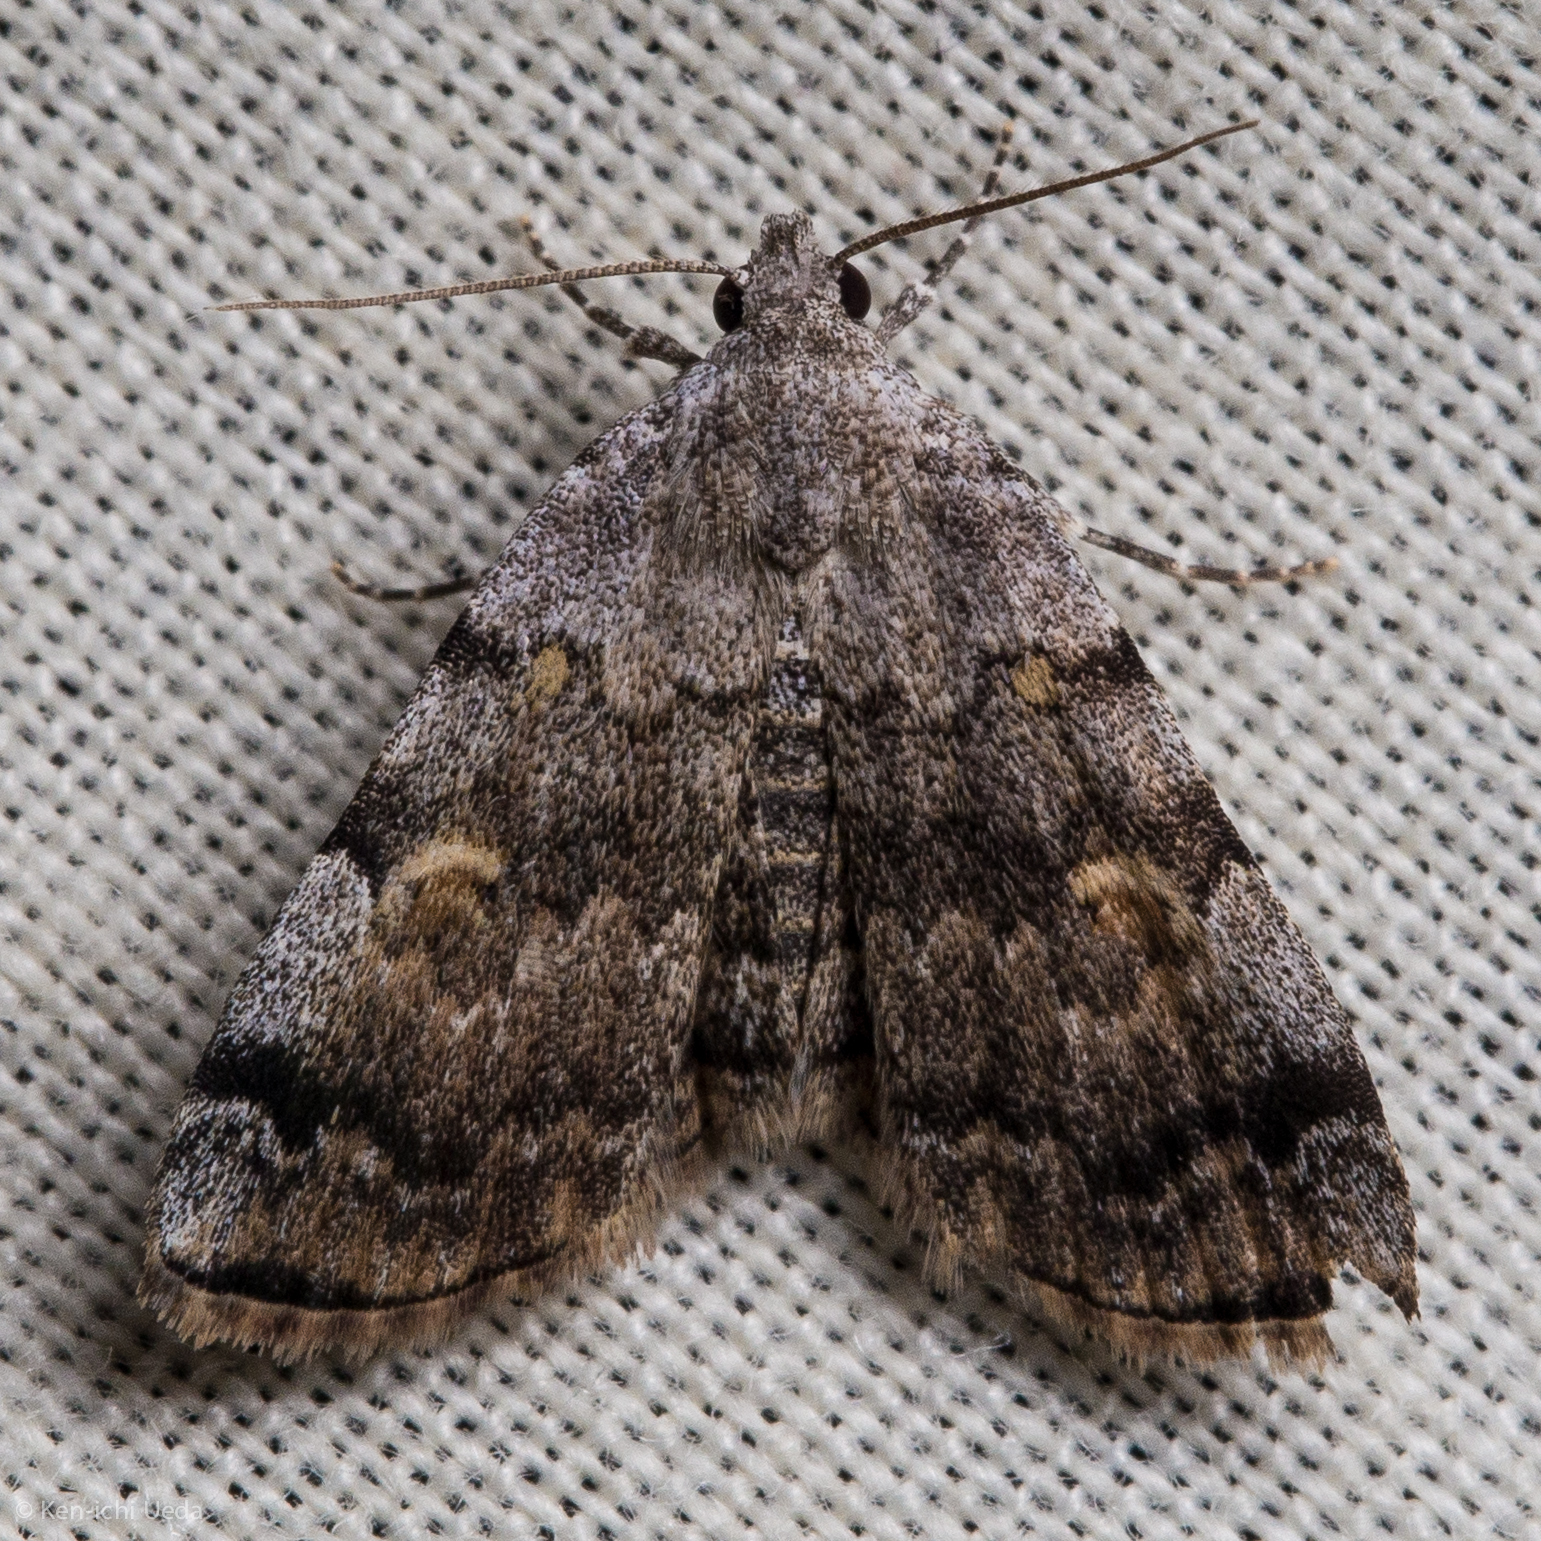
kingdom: Animalia
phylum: Arthropoda
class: Insecta
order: Lepidoptera
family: Erebidae
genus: Idia
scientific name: Idia americalis
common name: American idia moth
